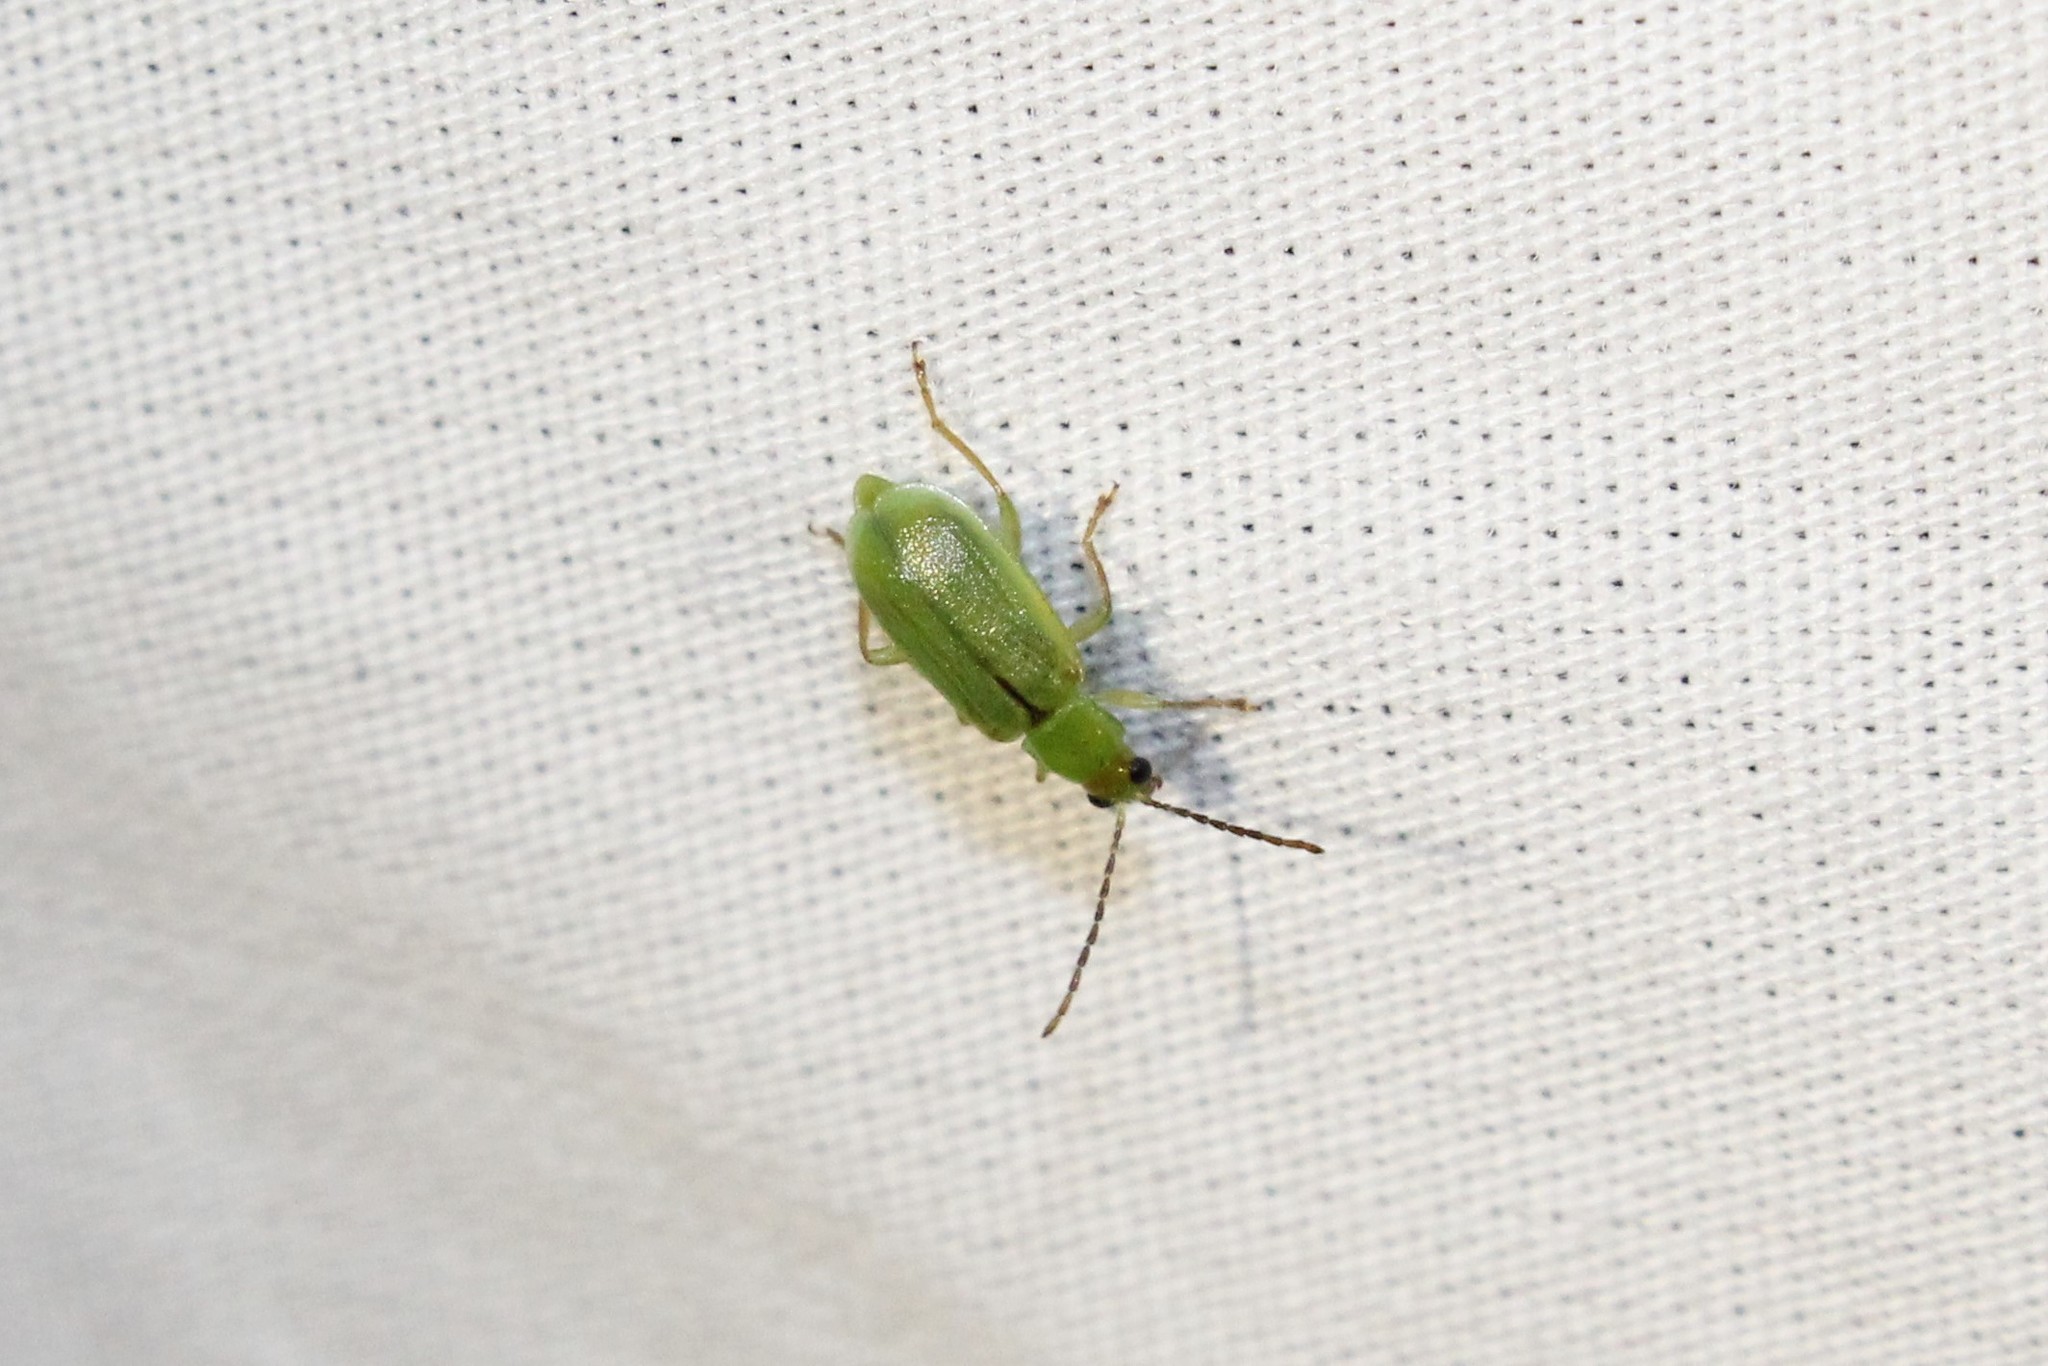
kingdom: Animalia
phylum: Arthropoda
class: Insecta
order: Coleoptera
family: Chrysomelidae
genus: Diabrotica
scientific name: Diabrotica barberi
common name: Northern corn rootworm
